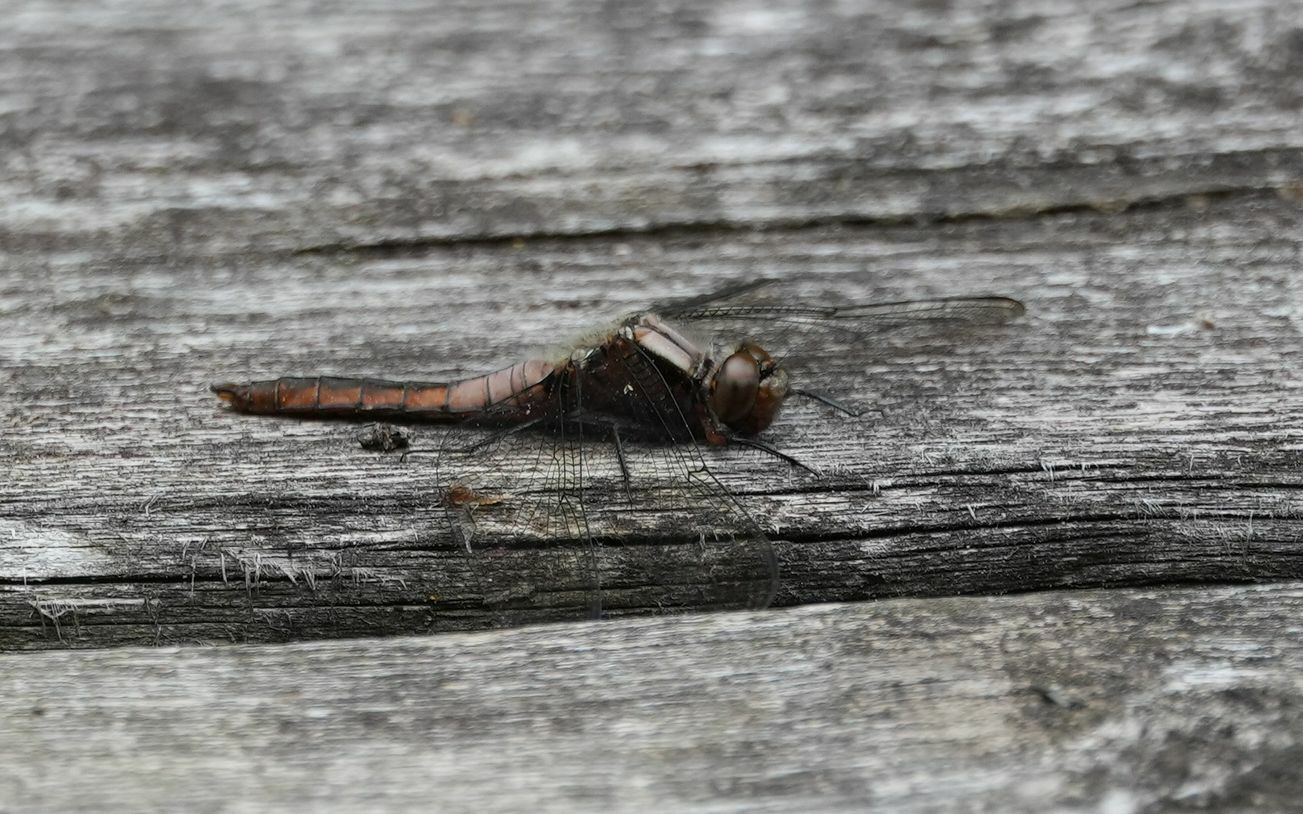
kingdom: Animalia
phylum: Arthropoda
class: Insecta
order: Odonata
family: Libellulidae
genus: Ladona
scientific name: Ladona julia
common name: Chalk-fronted corporal
